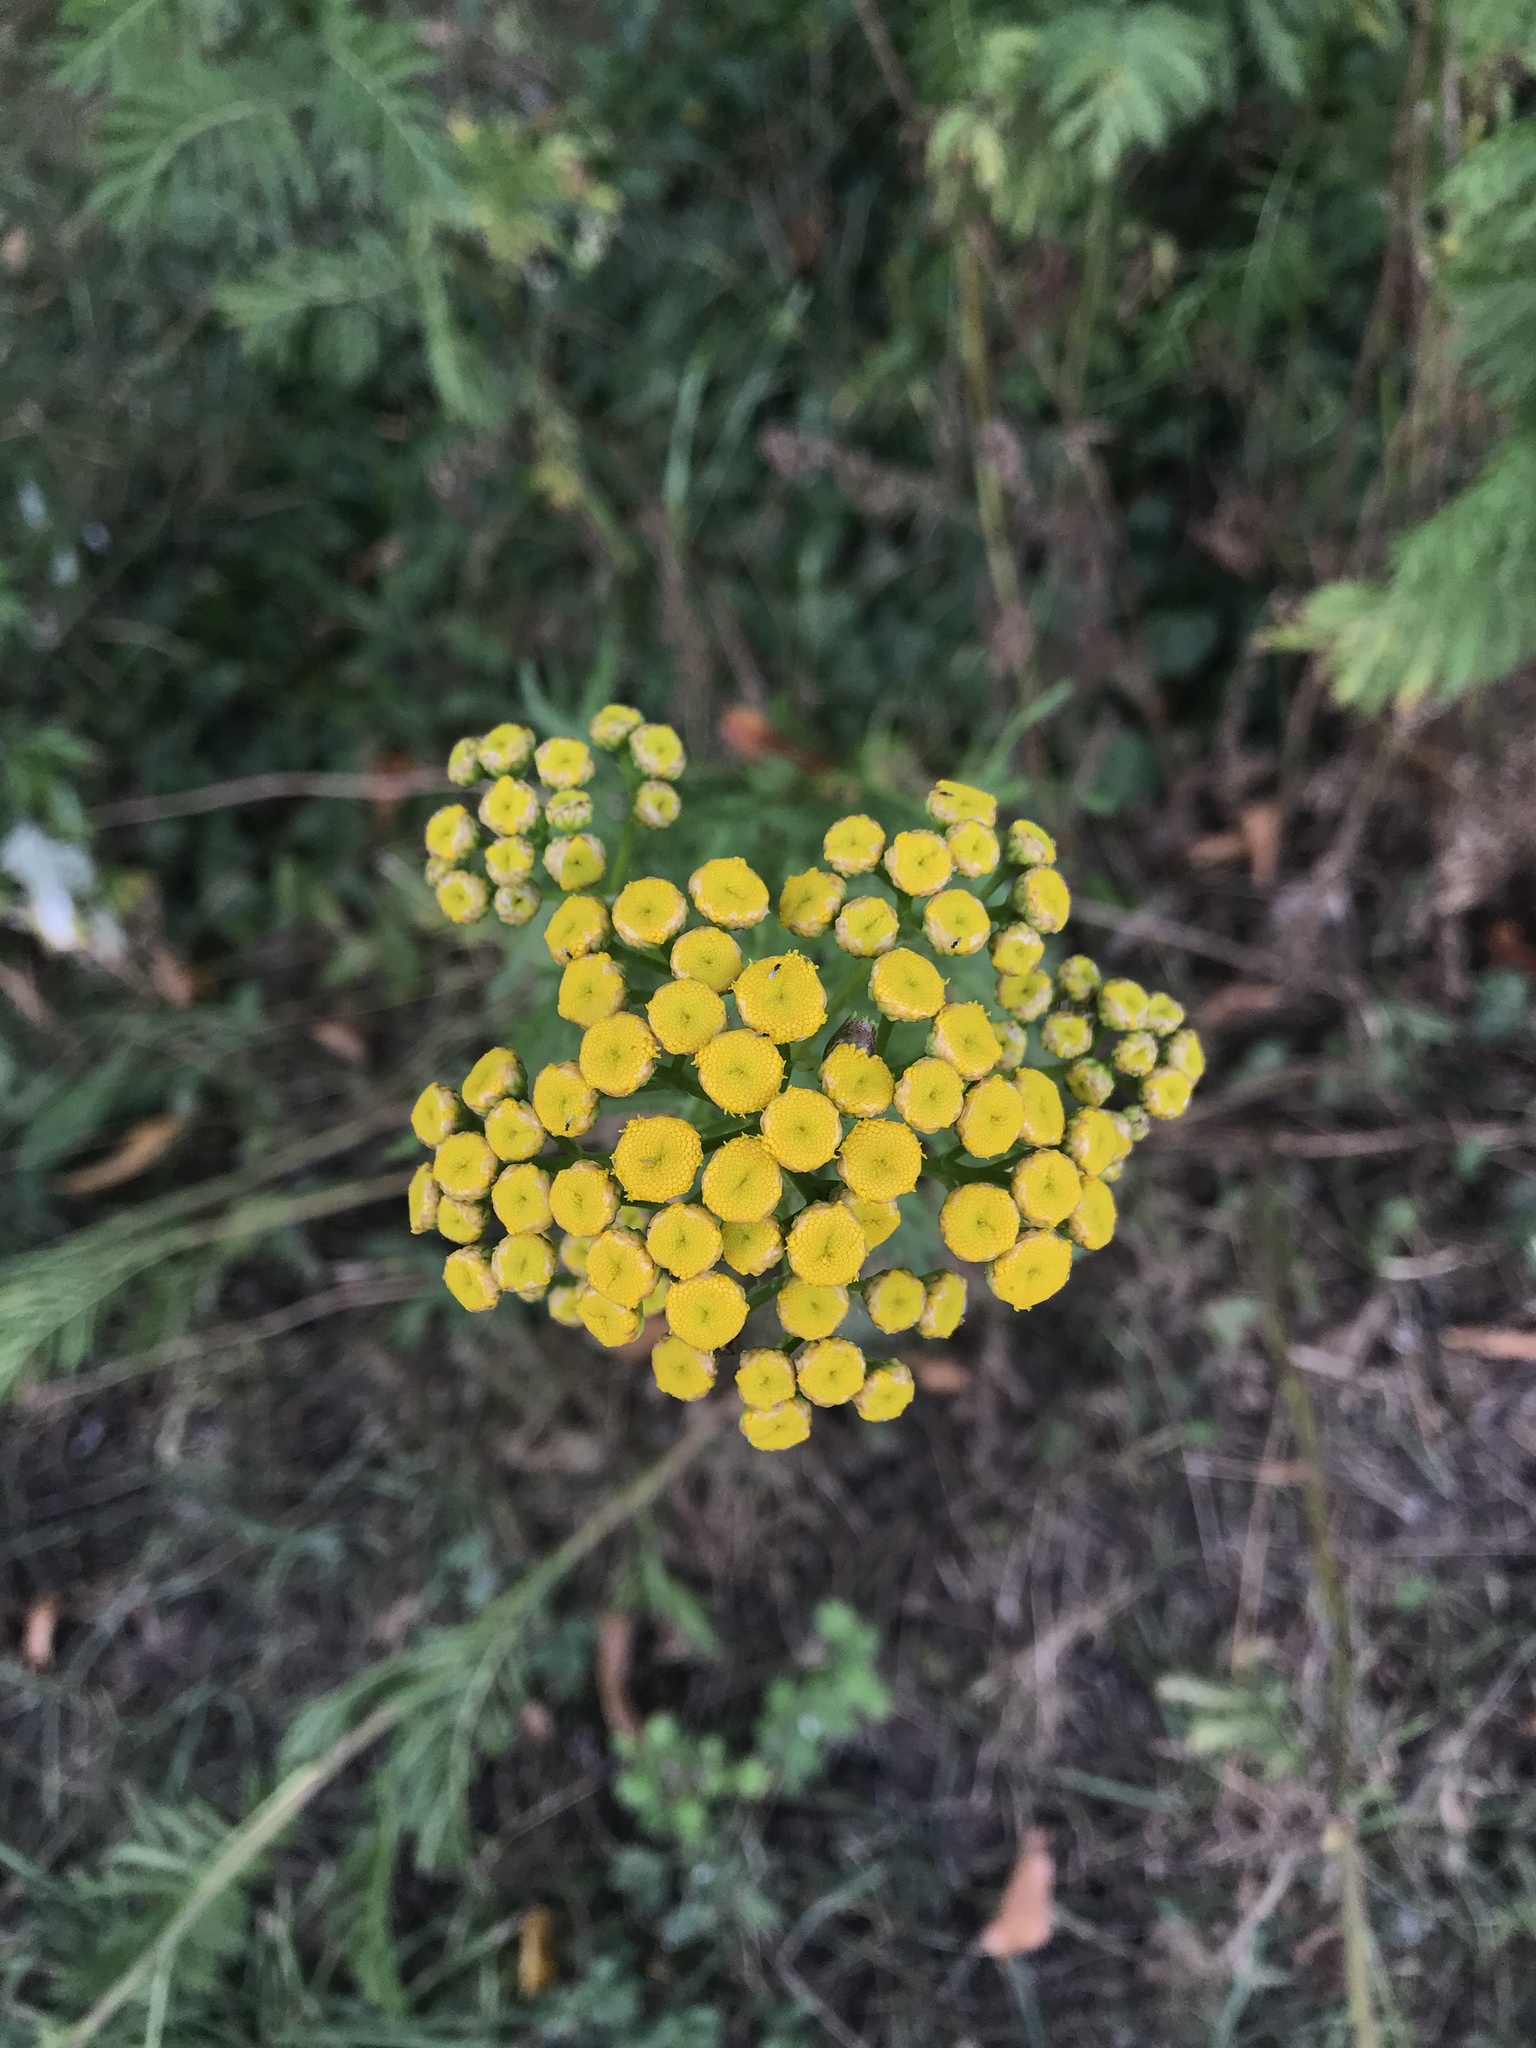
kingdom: Plantae
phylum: Tracheophyta
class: Magnoliopsida
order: Asterales
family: Asteraceae
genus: Tanacetum
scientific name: Tanacetum vulgare
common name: Common tansy
